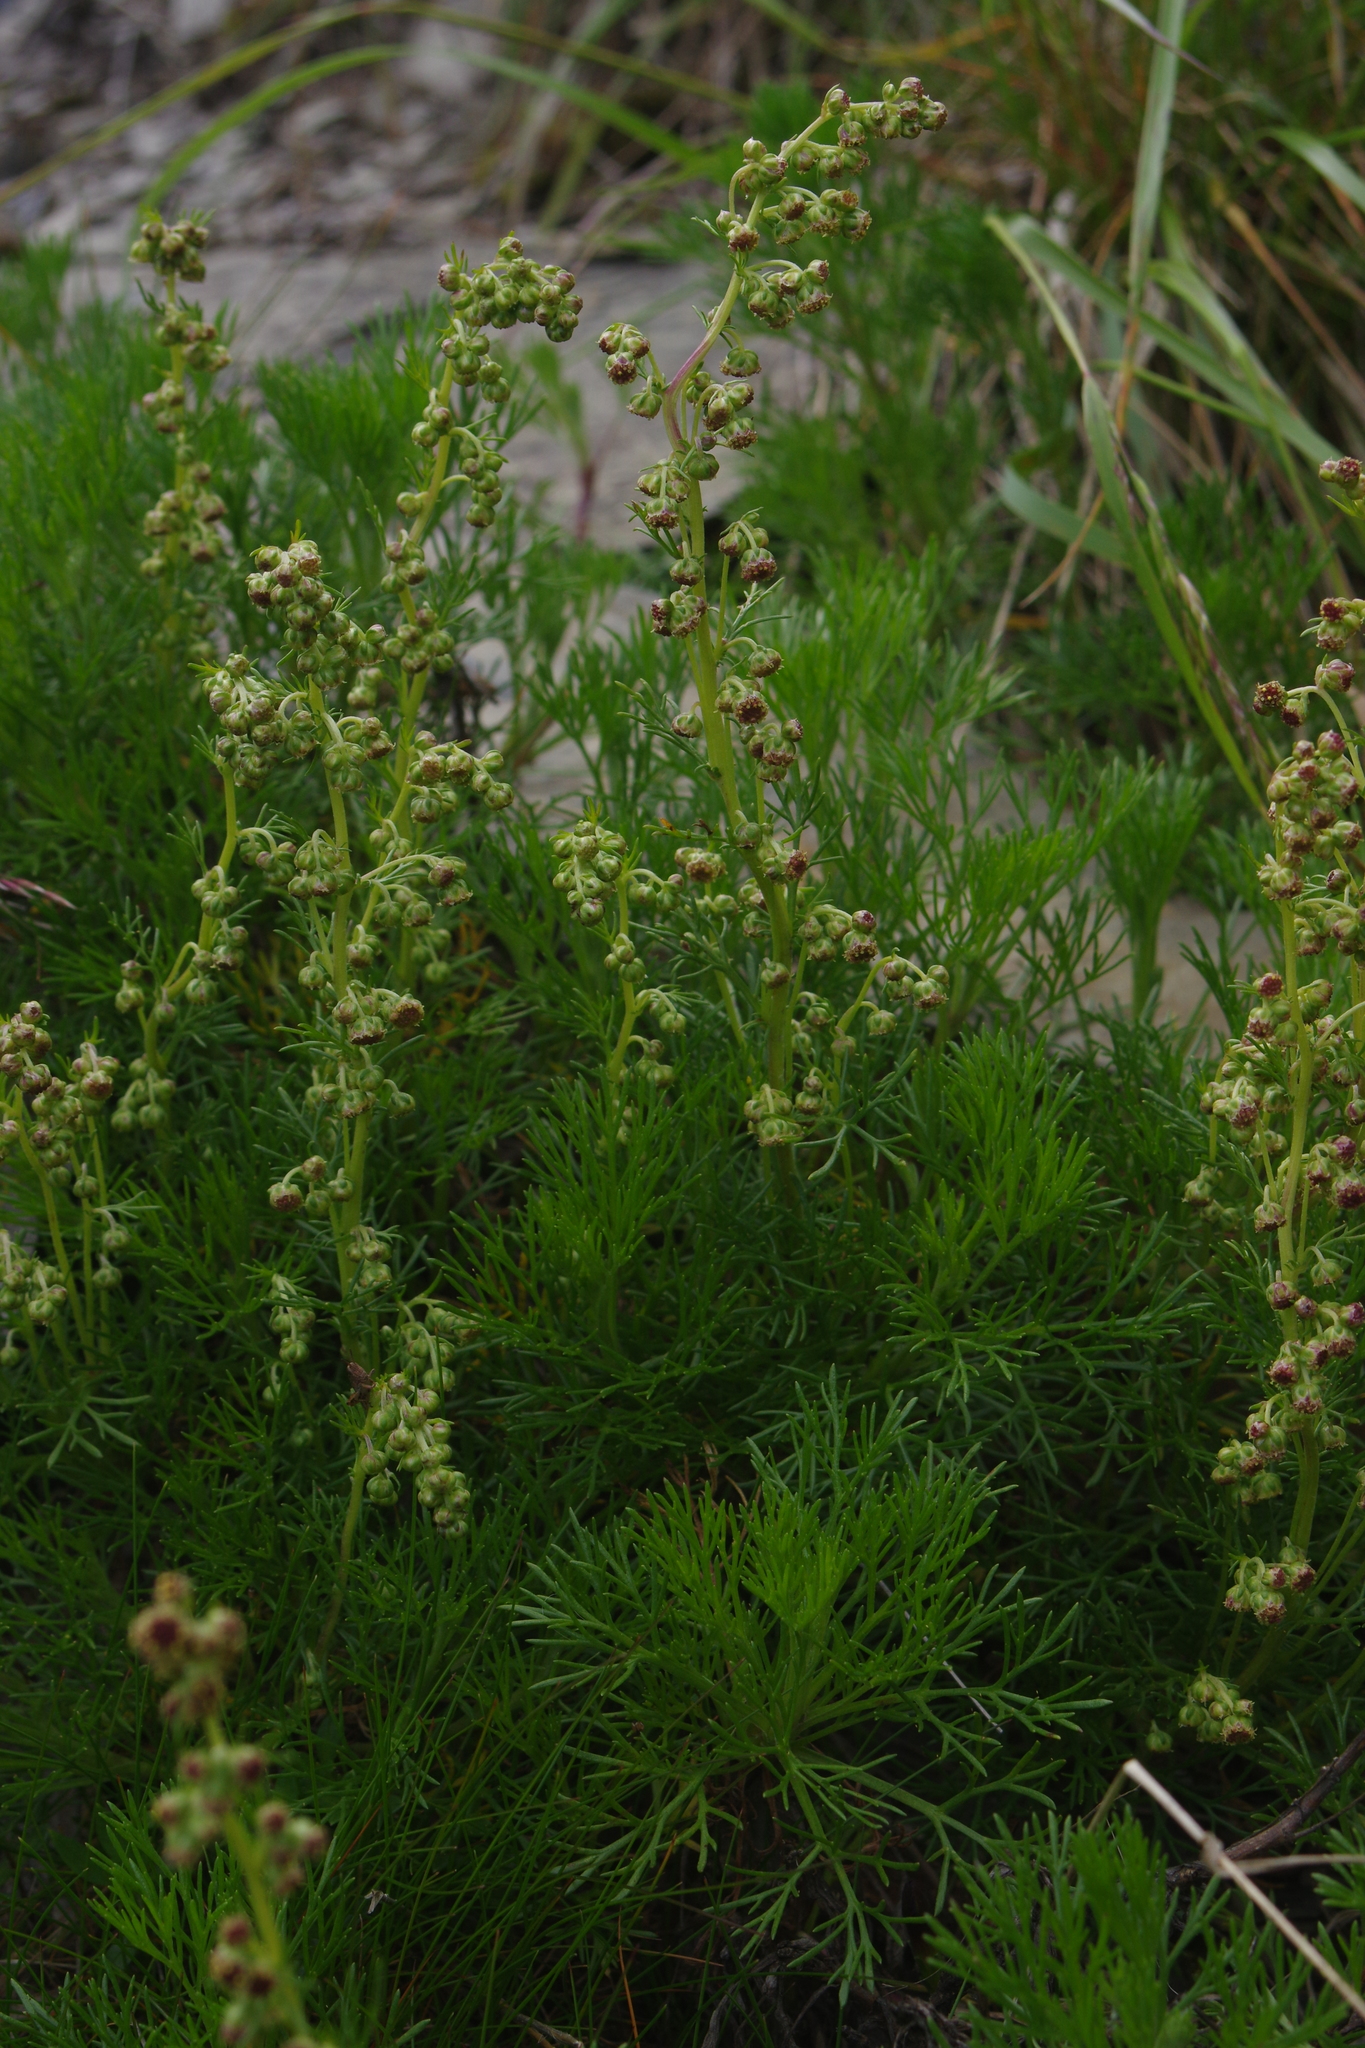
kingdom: Plantae
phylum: Tracheophyta
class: Magnoliopsida
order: Asterales
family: Asteraceae
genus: Artemisia
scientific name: Artemisia morrisonensis
